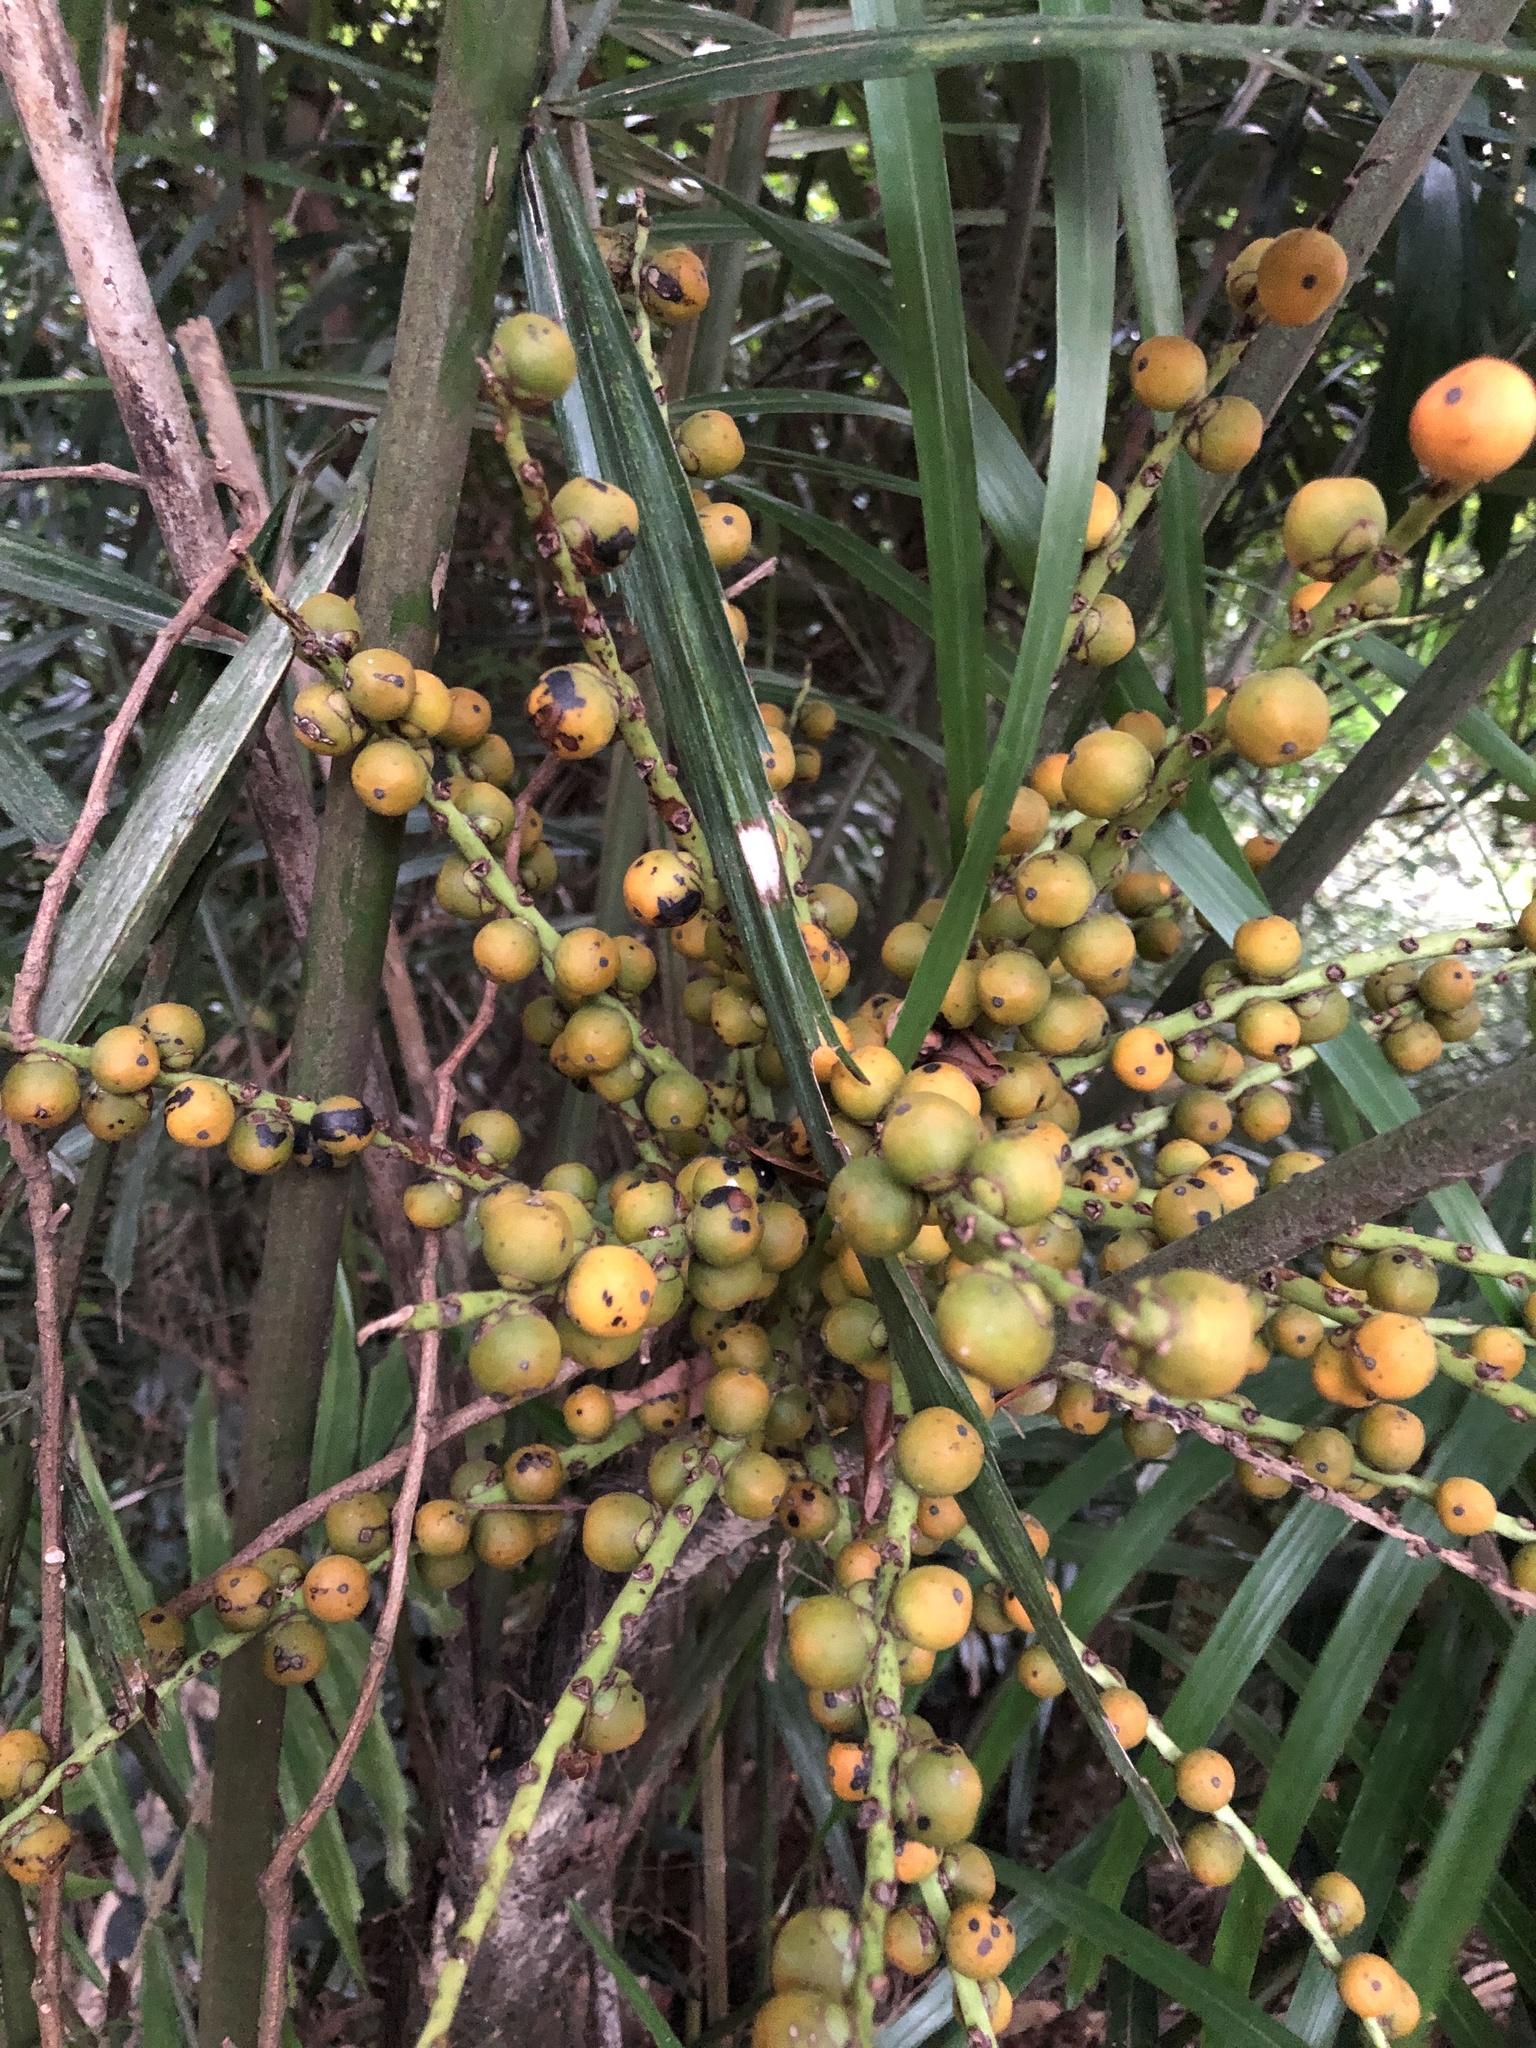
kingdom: Plantae
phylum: Tracheophyta
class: Liliopsida
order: Arecales
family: Arecaceae
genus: Arenga
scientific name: Arenga engleri
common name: Formosan sugar palm
